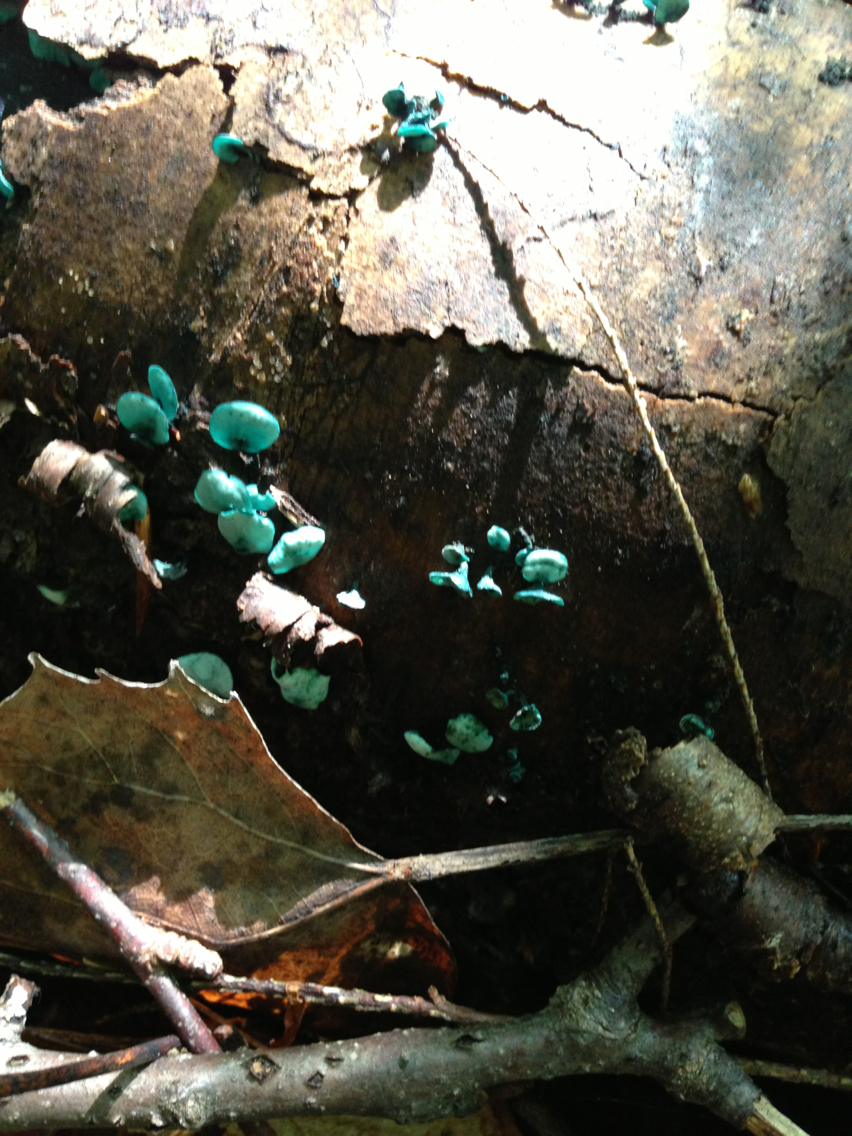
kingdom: Fungi
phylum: Ascomycota
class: Leotiomycetes
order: Helotiales
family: Chlorociboriaceae
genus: Chlorociboria
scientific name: Chlorociboria aeruginascens
